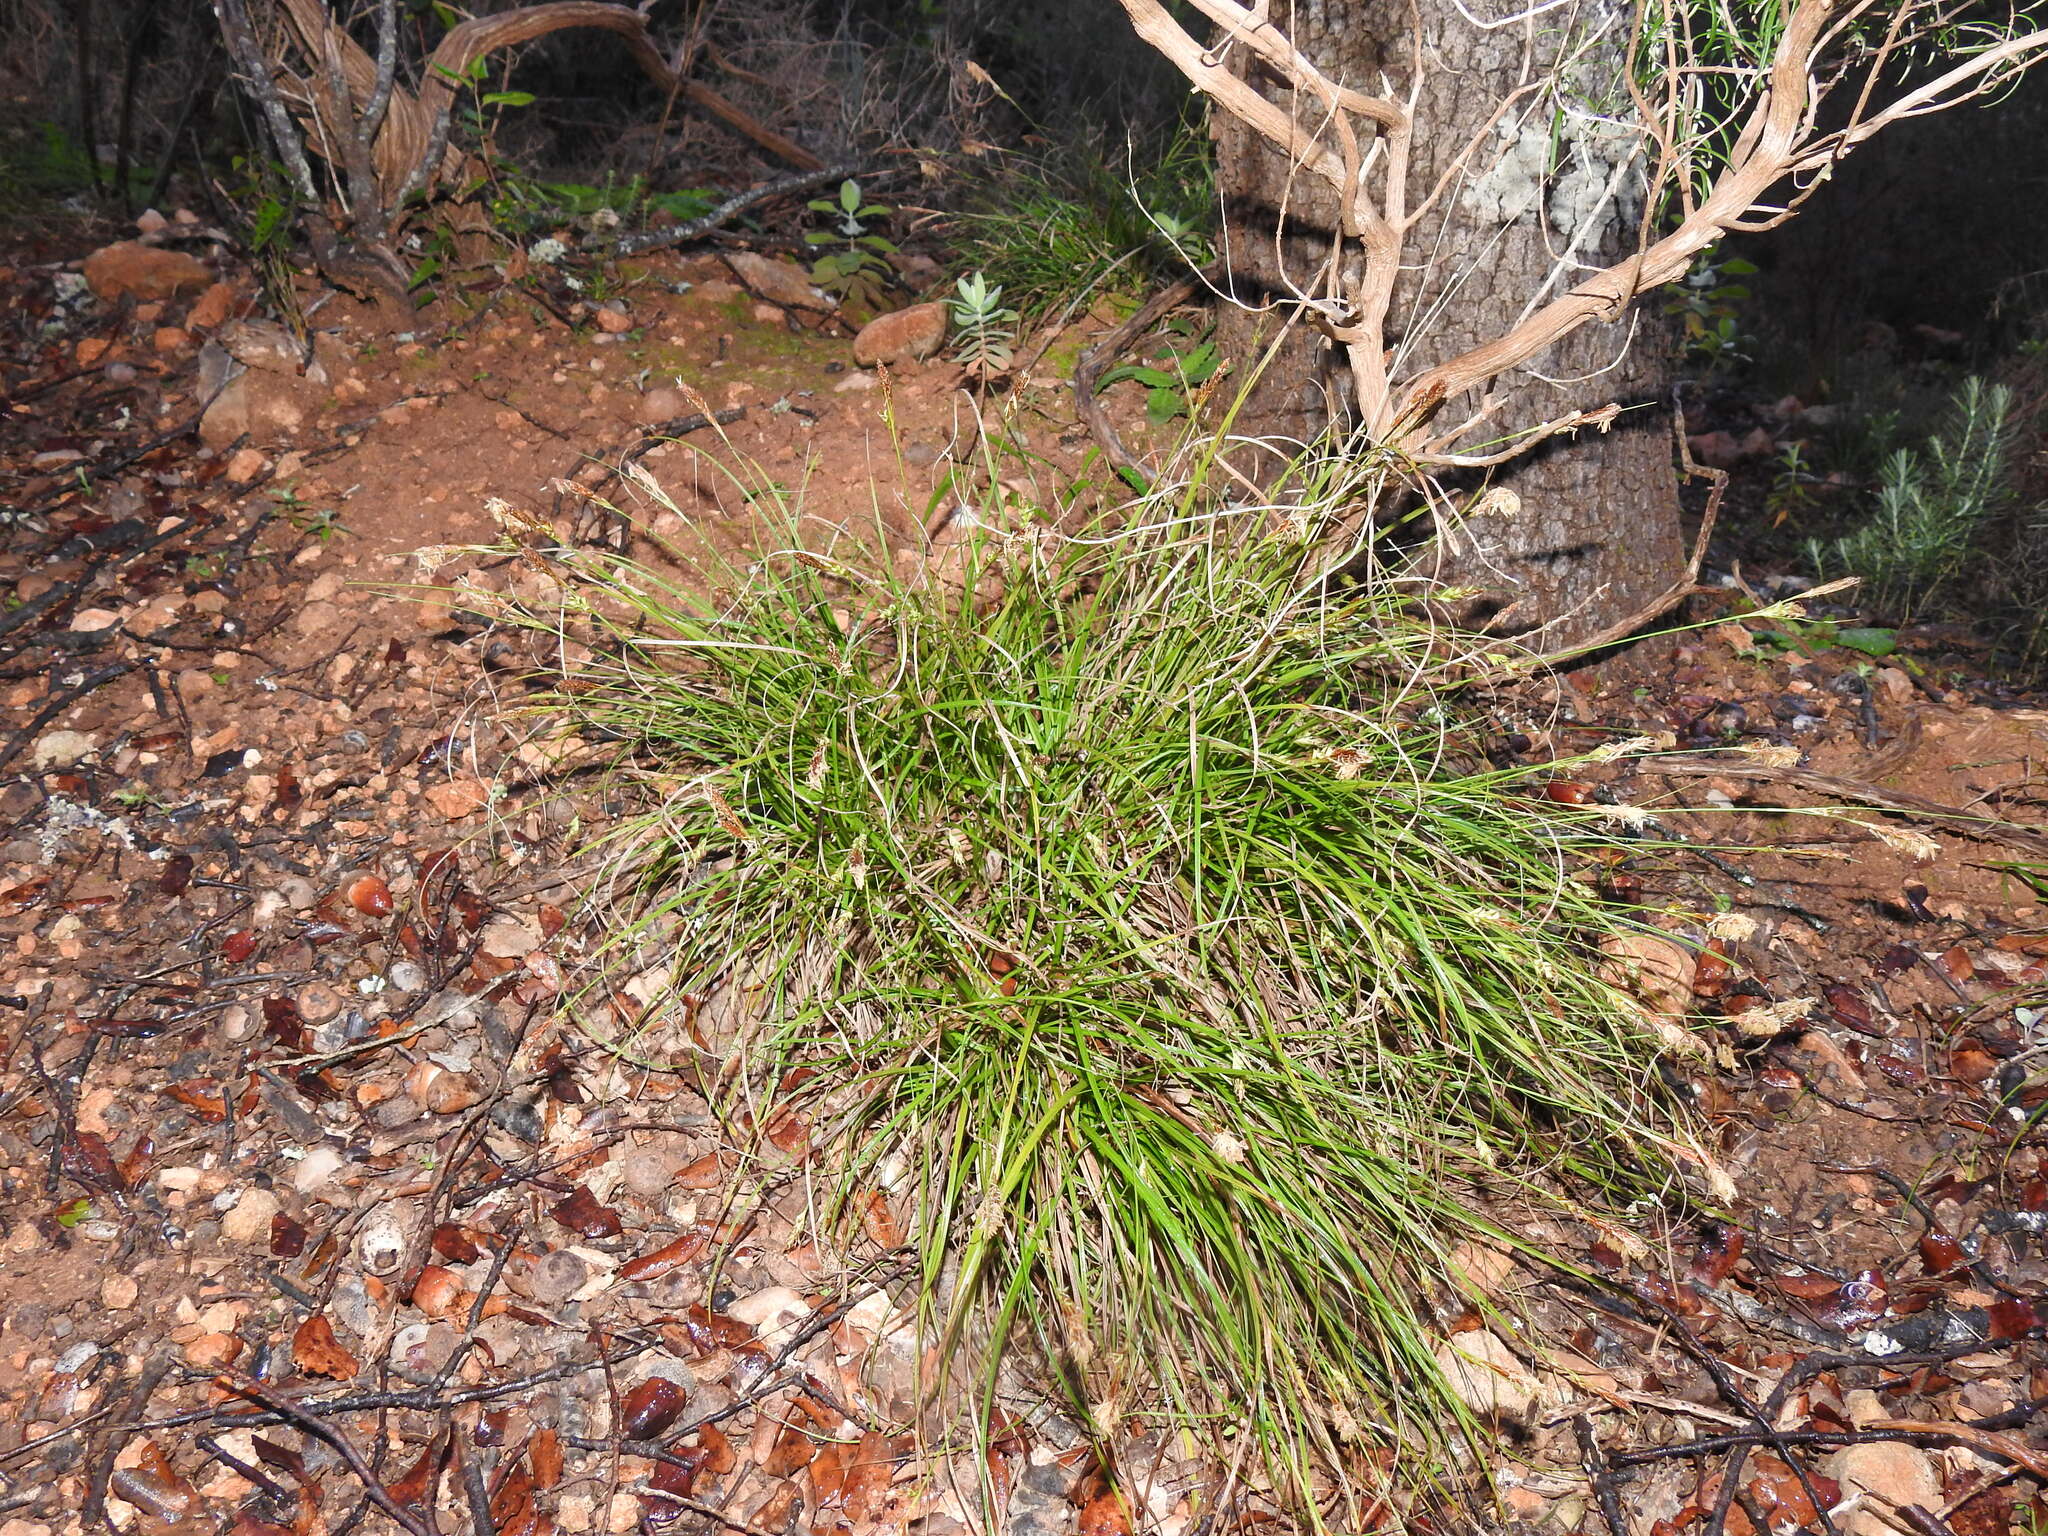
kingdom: Plantae
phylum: Tracheophyta
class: Liliopsida
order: Poales
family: Cyperaceae
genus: Carex
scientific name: Carex halleriana
